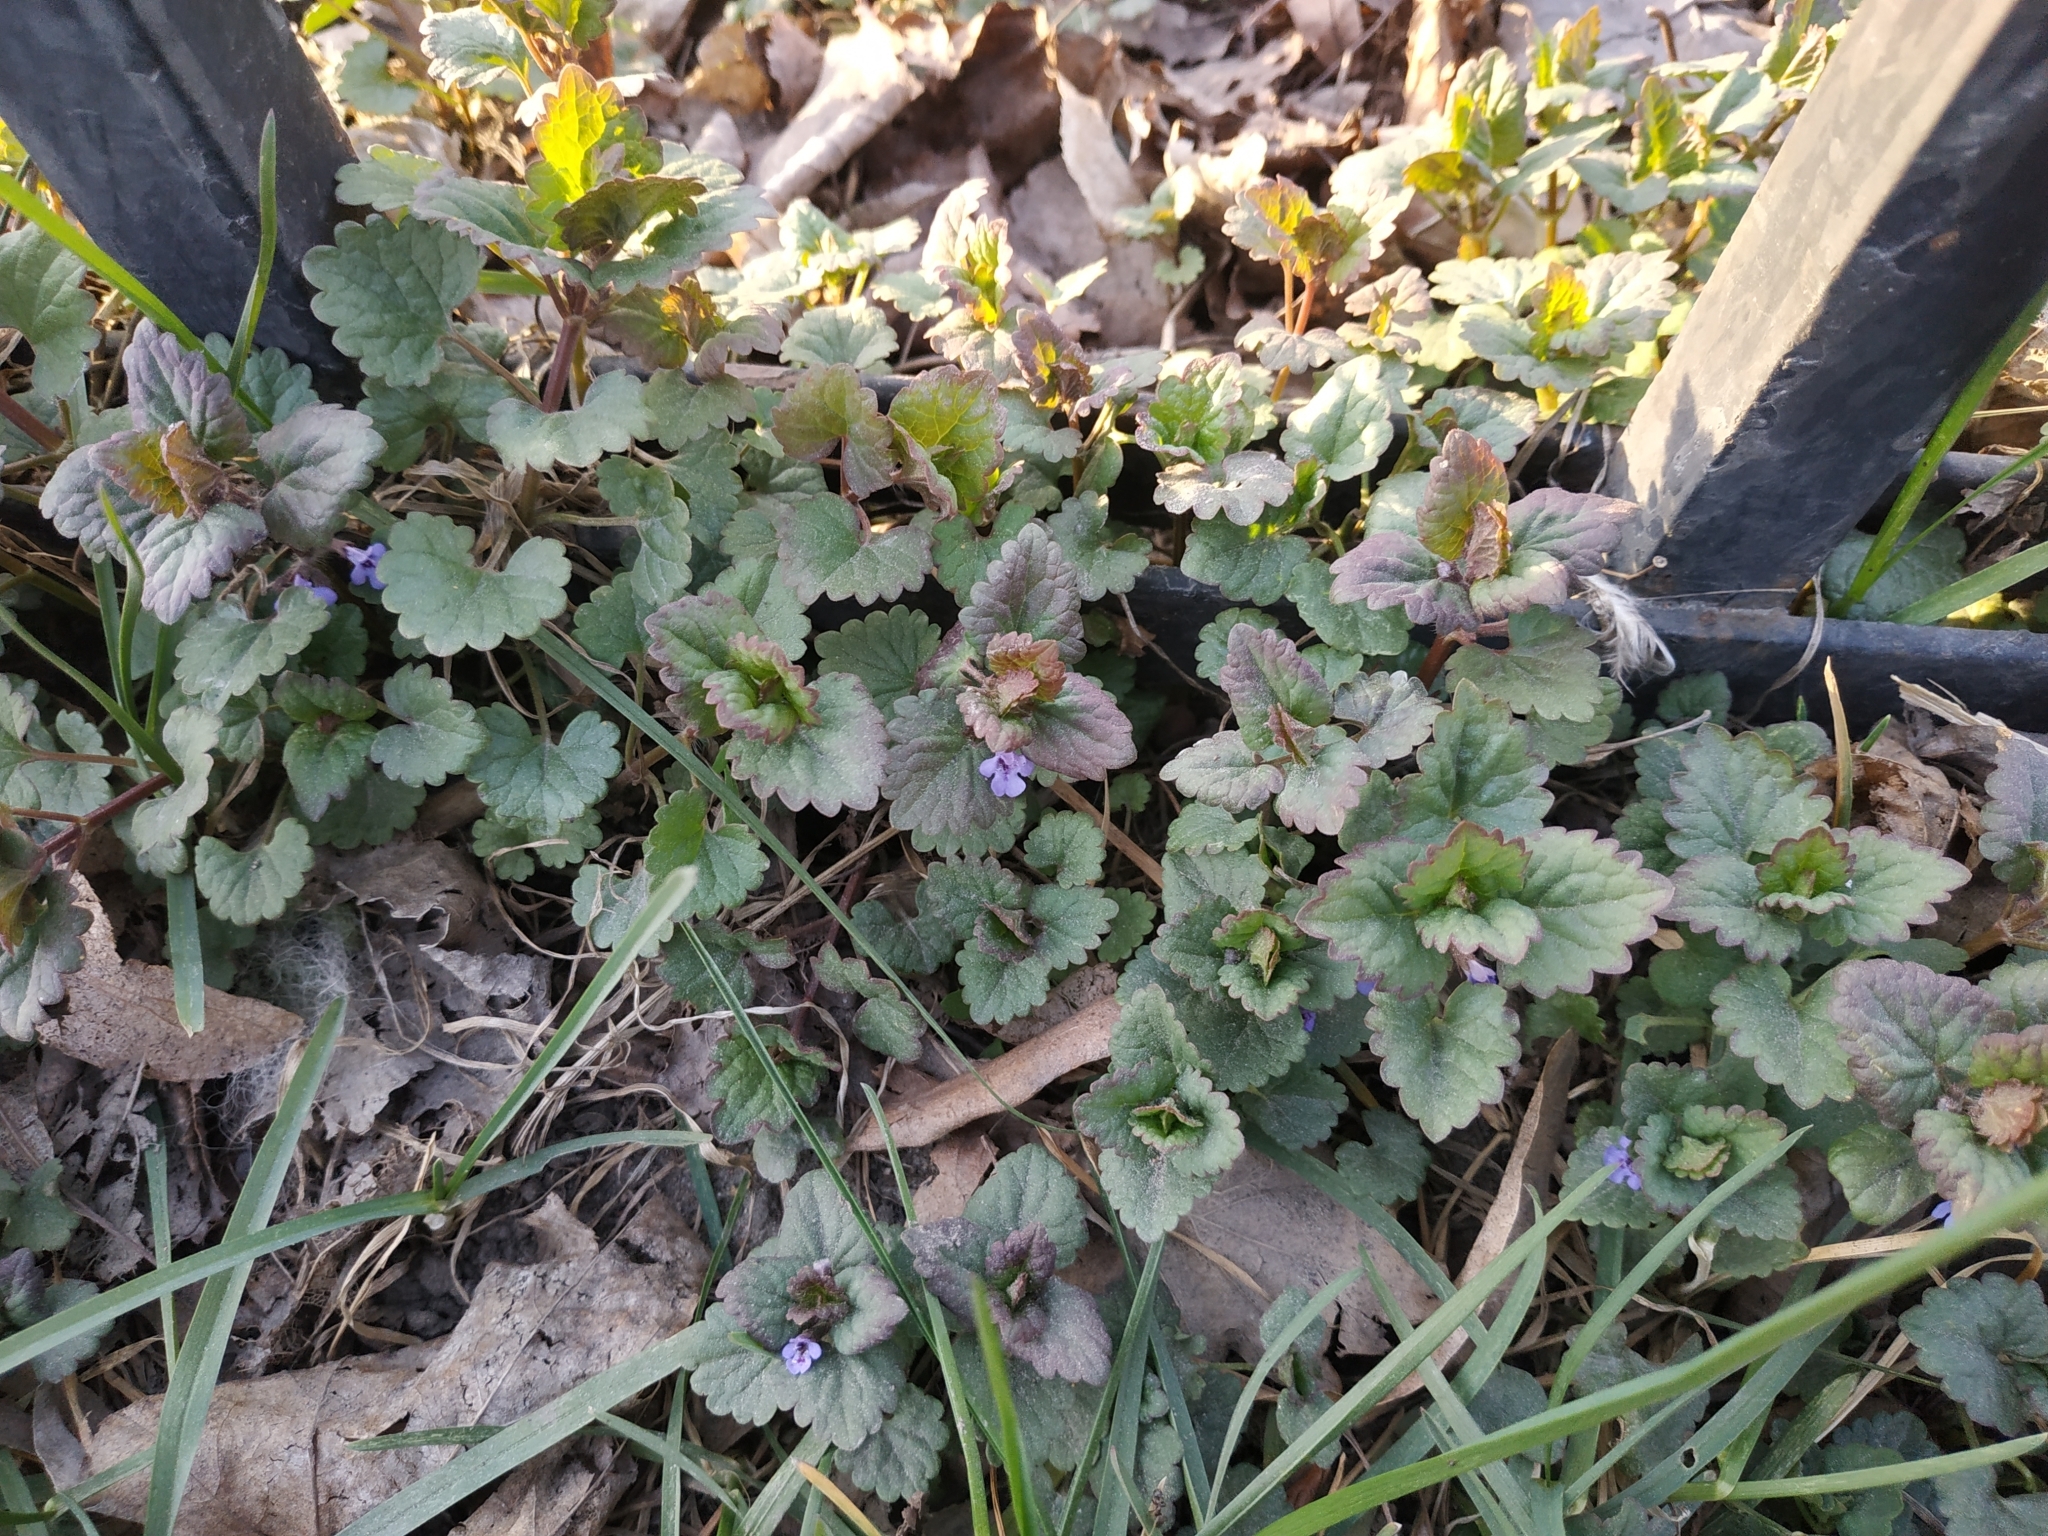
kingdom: Plantae
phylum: Tracheophyta
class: Magnoliopsida
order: Lamiales
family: Lamiaceae
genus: Glechoma
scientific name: Glechoma hederacea
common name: Ground ivy
